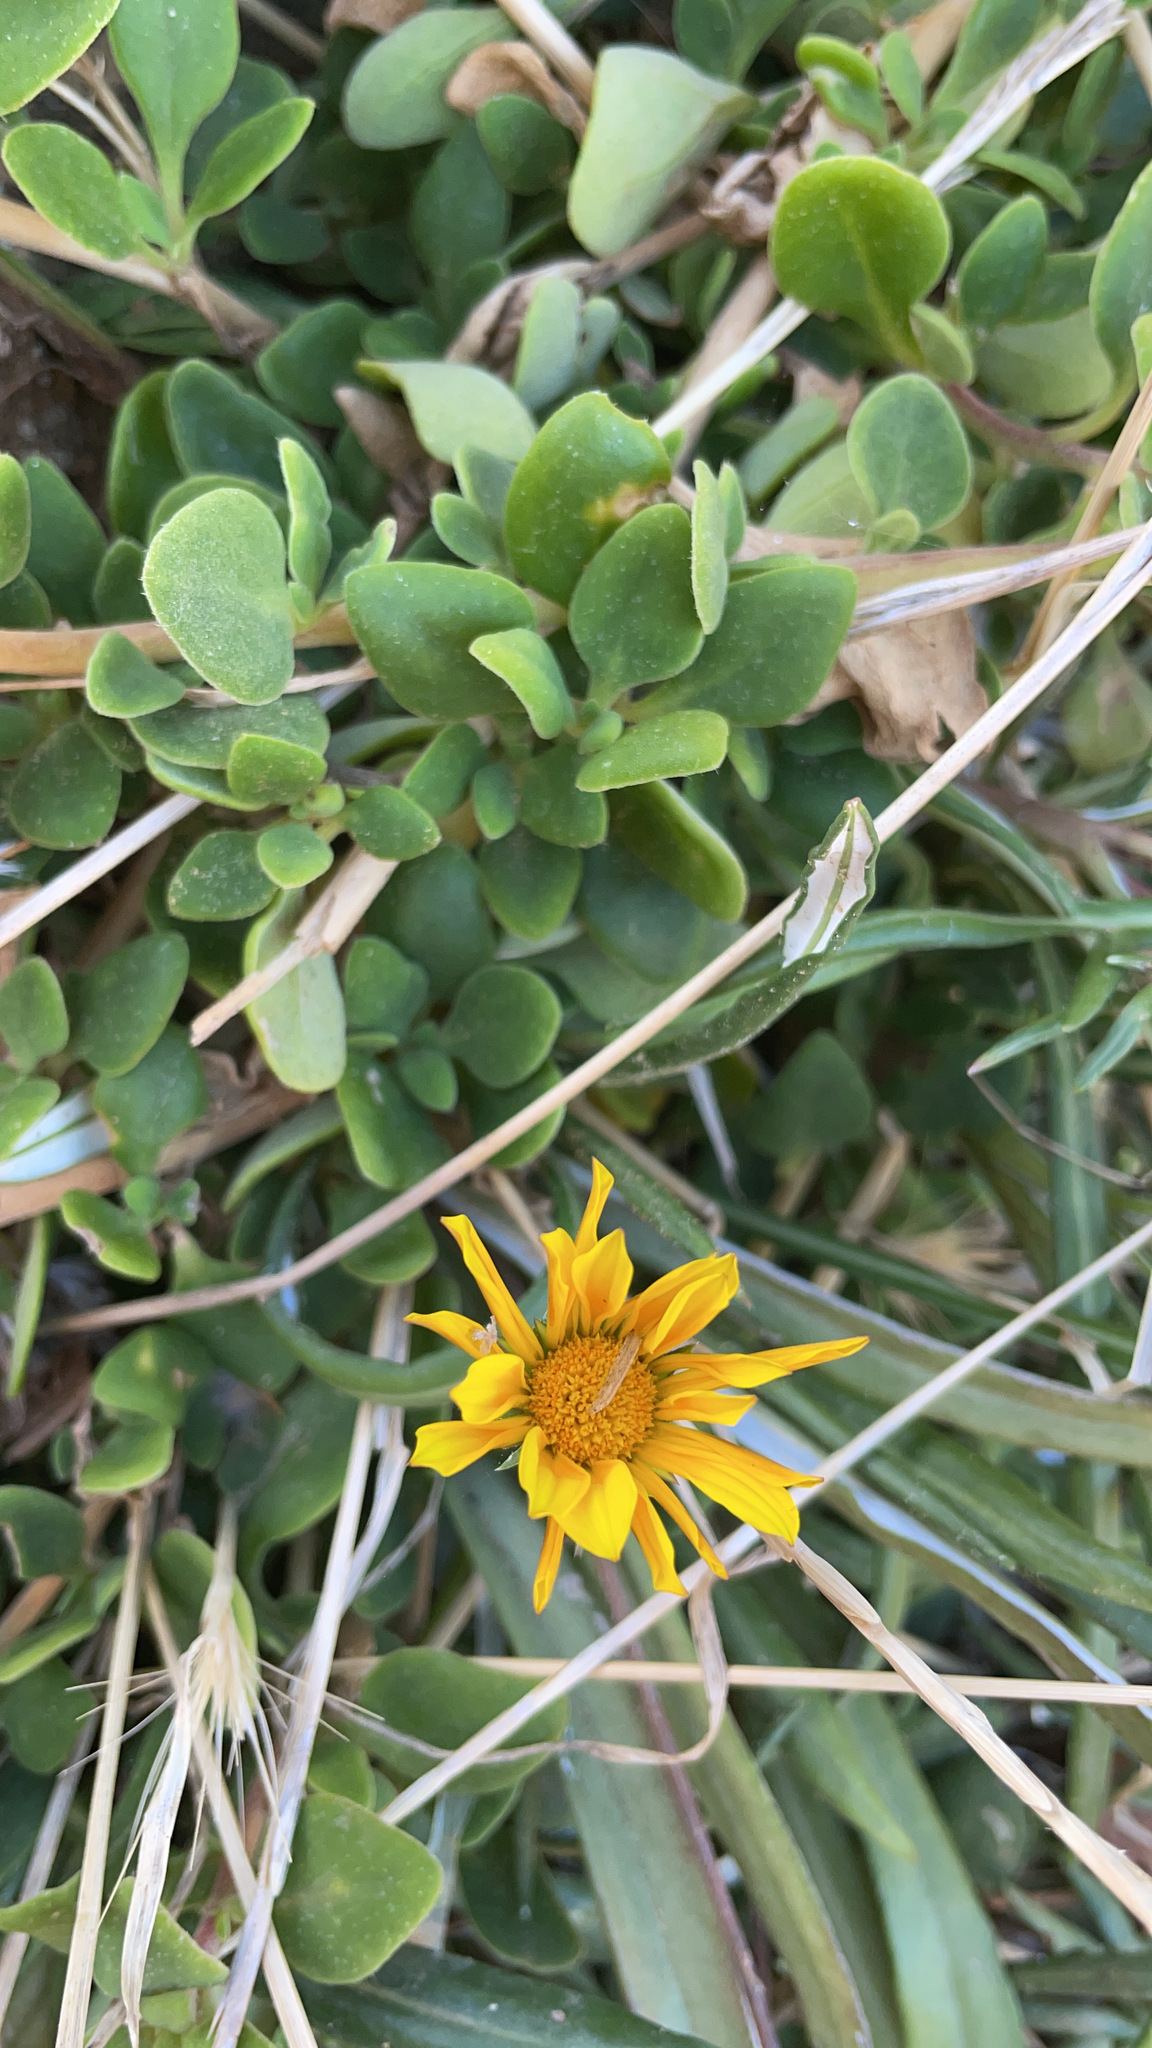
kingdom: Plantae
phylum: Tracheophyta
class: Magnoliopsida
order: Asterales
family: Asteraceae
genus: Gazania
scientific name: Gazania splendens
